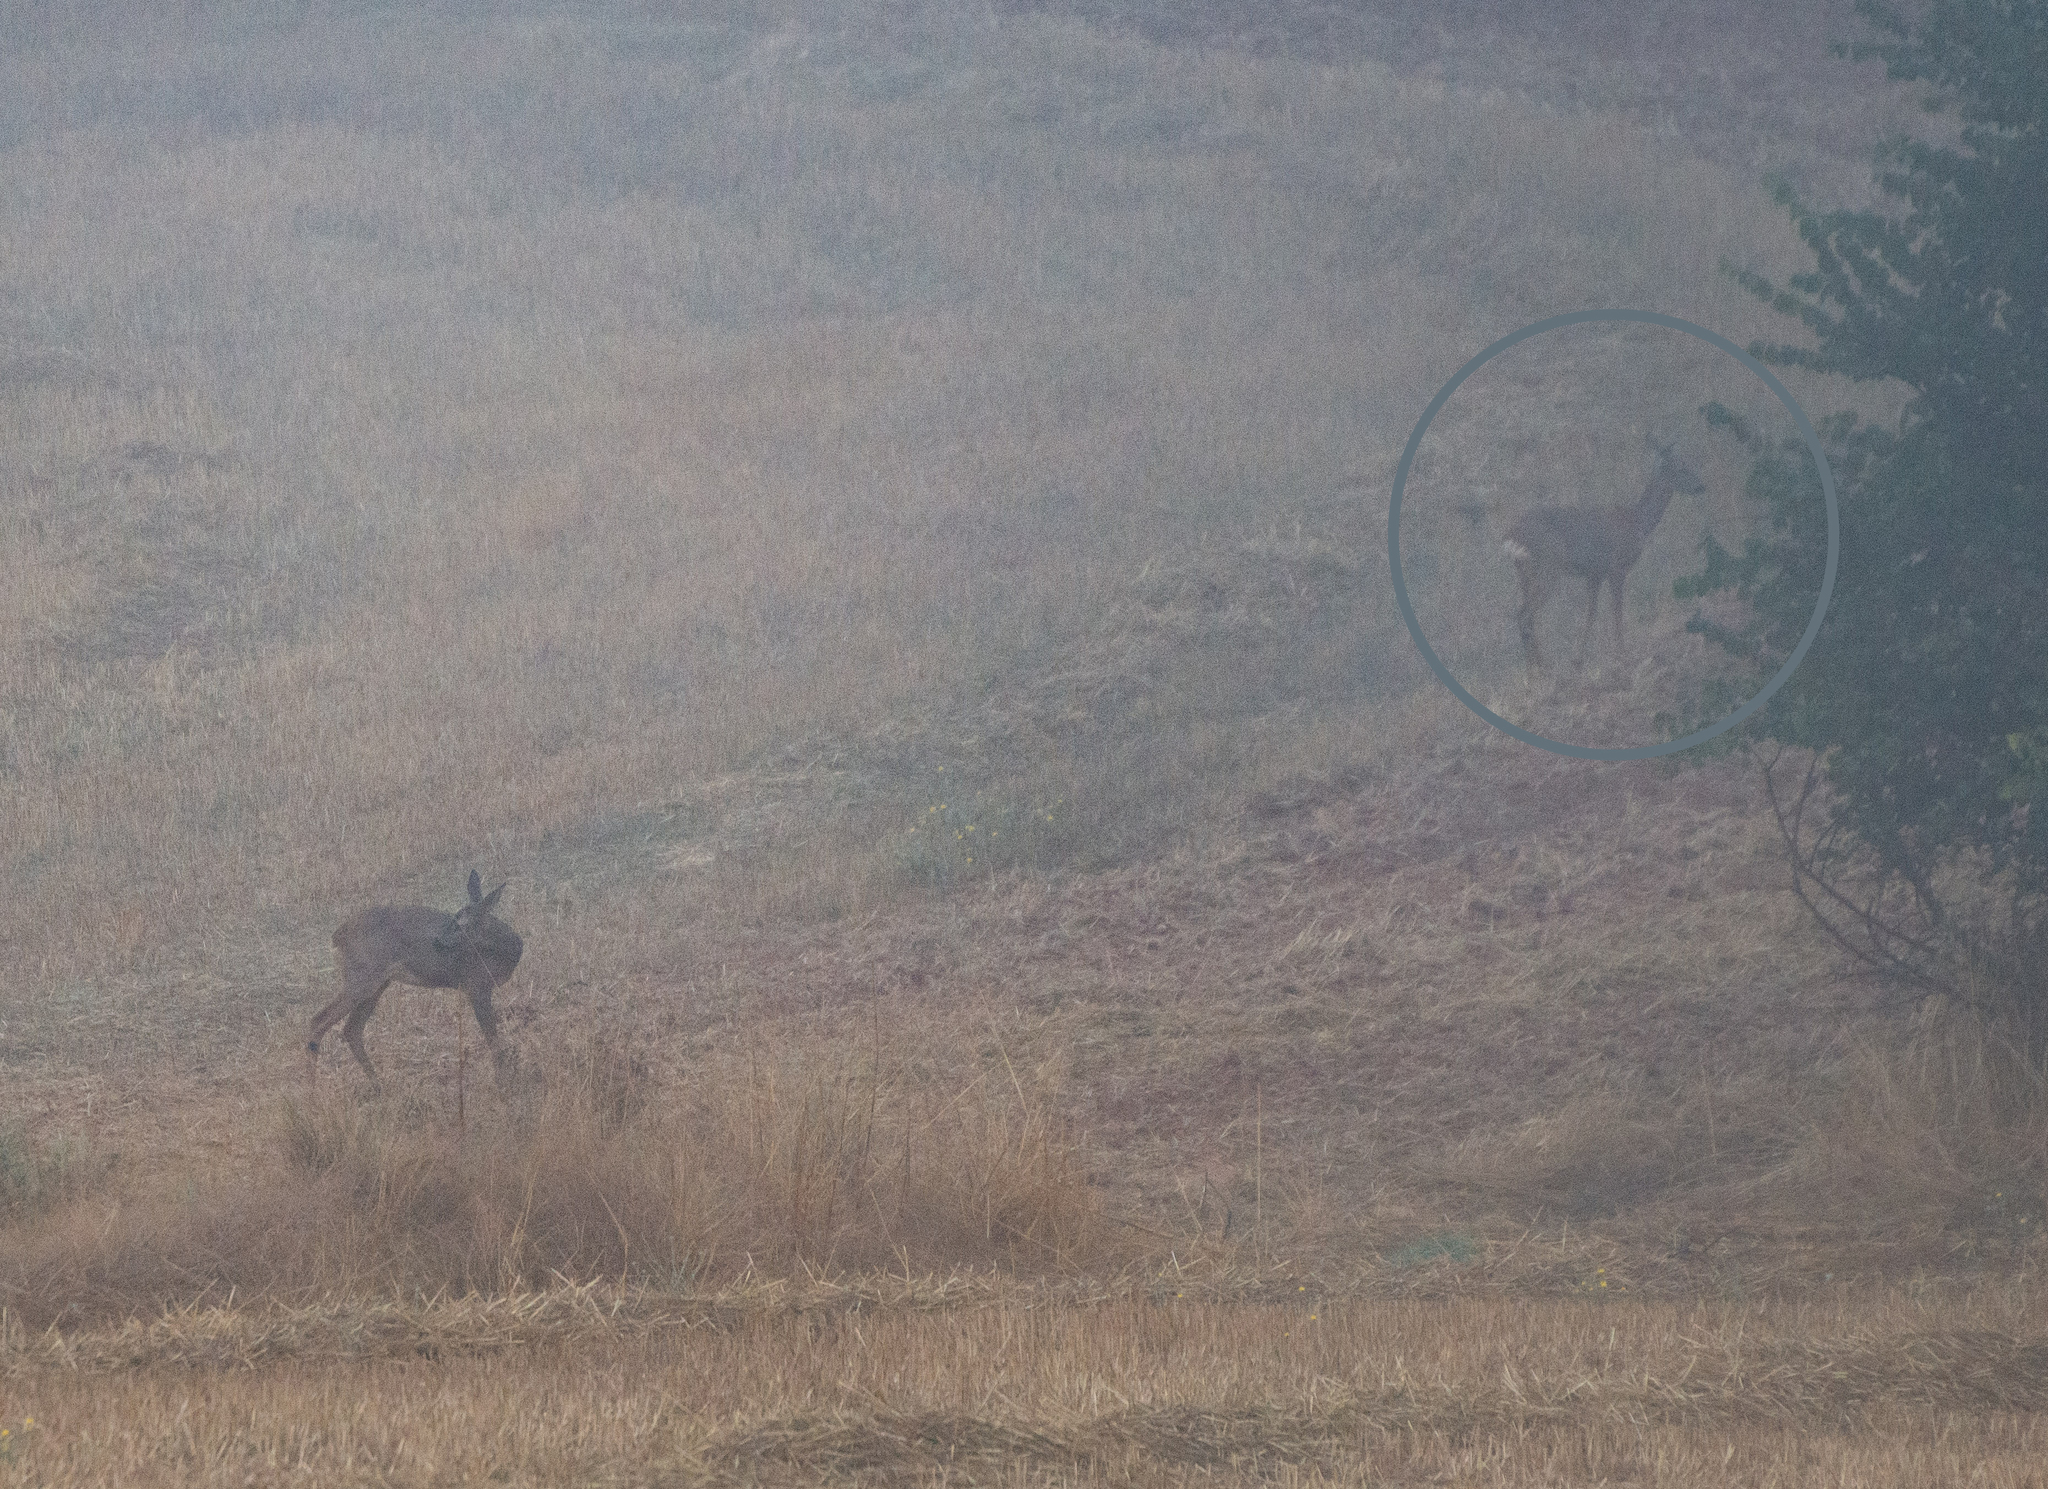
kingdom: Animalia
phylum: Chordata
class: Mammalia
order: Artiodactyla
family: Cervidae
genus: Capreolus
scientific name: Capreolus capreolus
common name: Western roe deer
